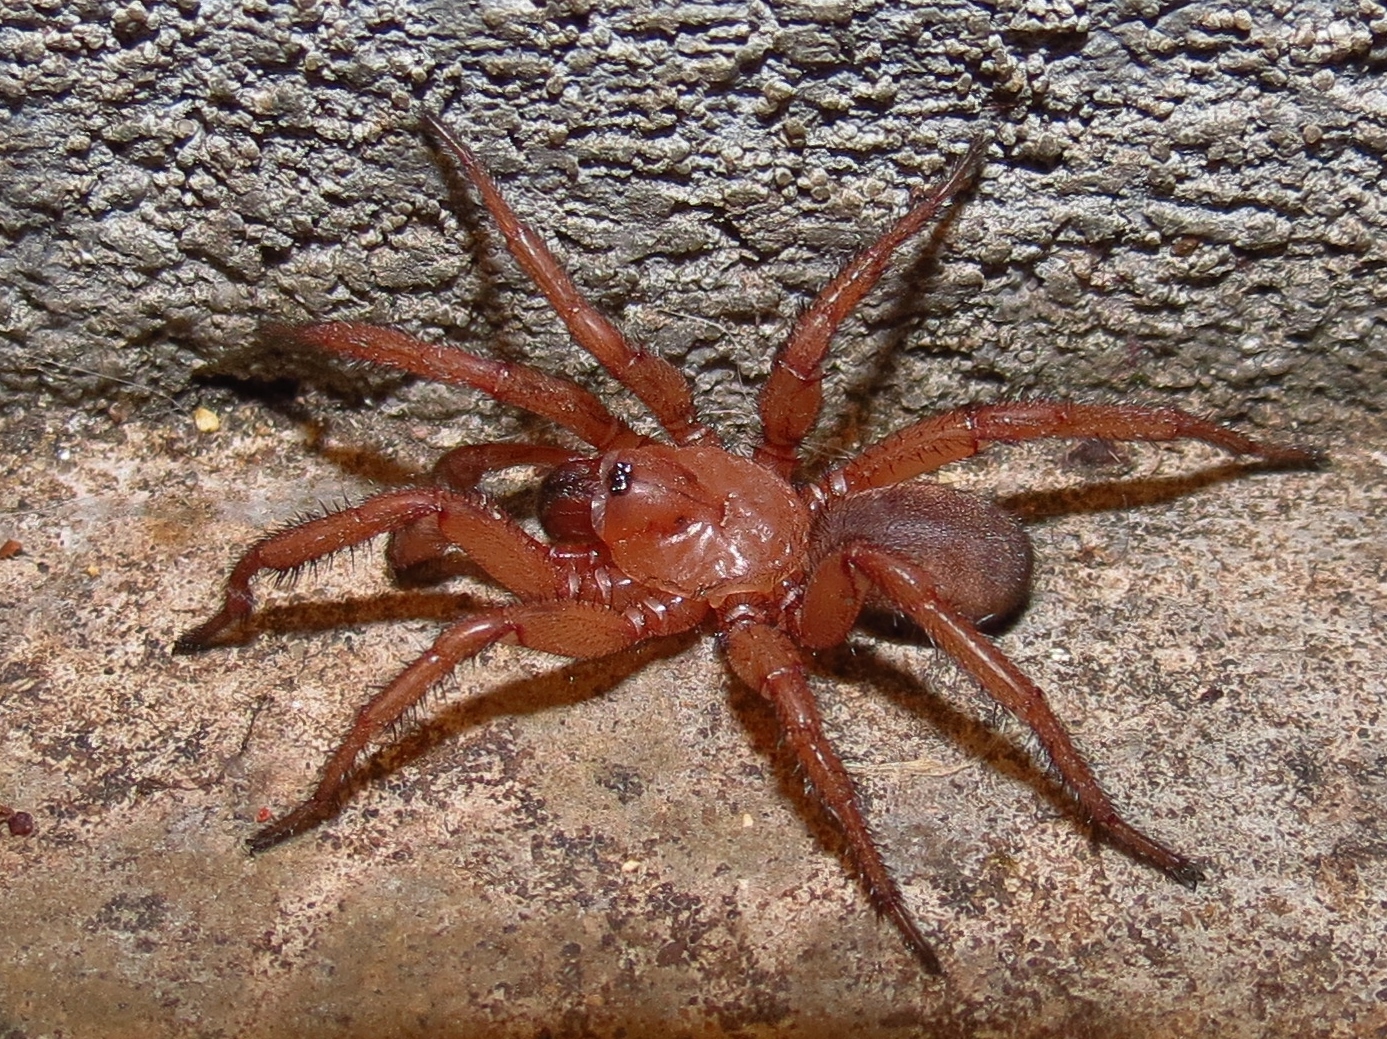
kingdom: Animalia
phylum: Arthropoda
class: Arachnida
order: Araneae
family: Euctenizidae
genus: Myrmekiaphila
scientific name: Myrmekiaphila comstocki
